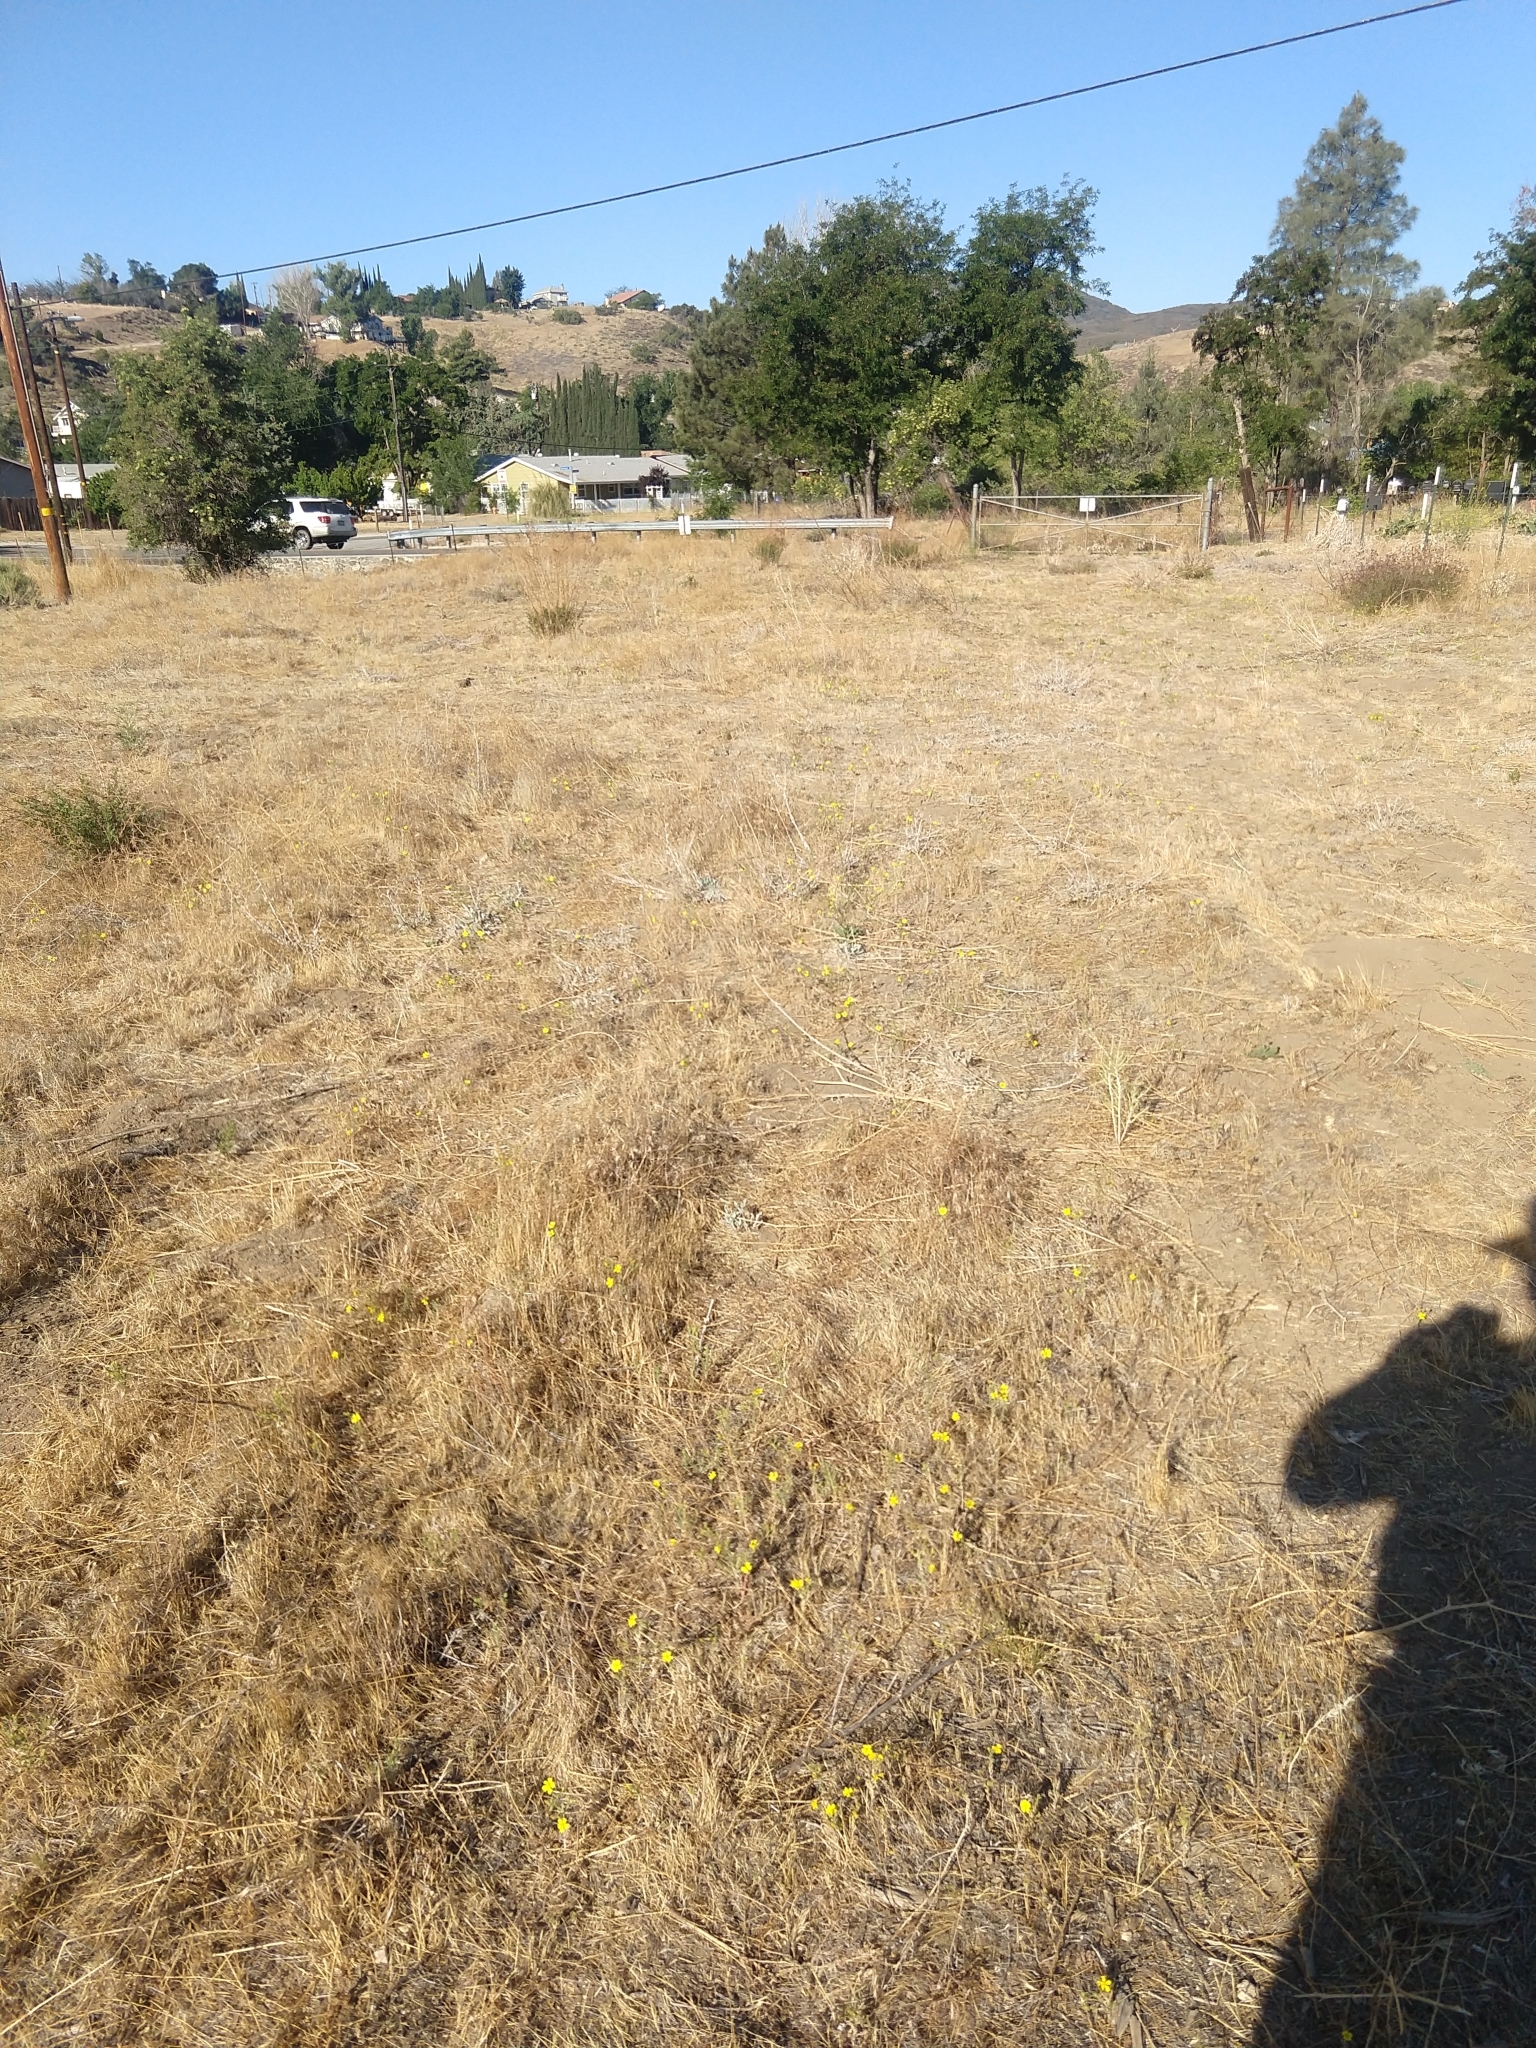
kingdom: Plantae
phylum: Tracheophyta
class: Magnoliopsida
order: Asterales
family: Asteraceae
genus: Deinandra
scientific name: Deinandra kelloggii
